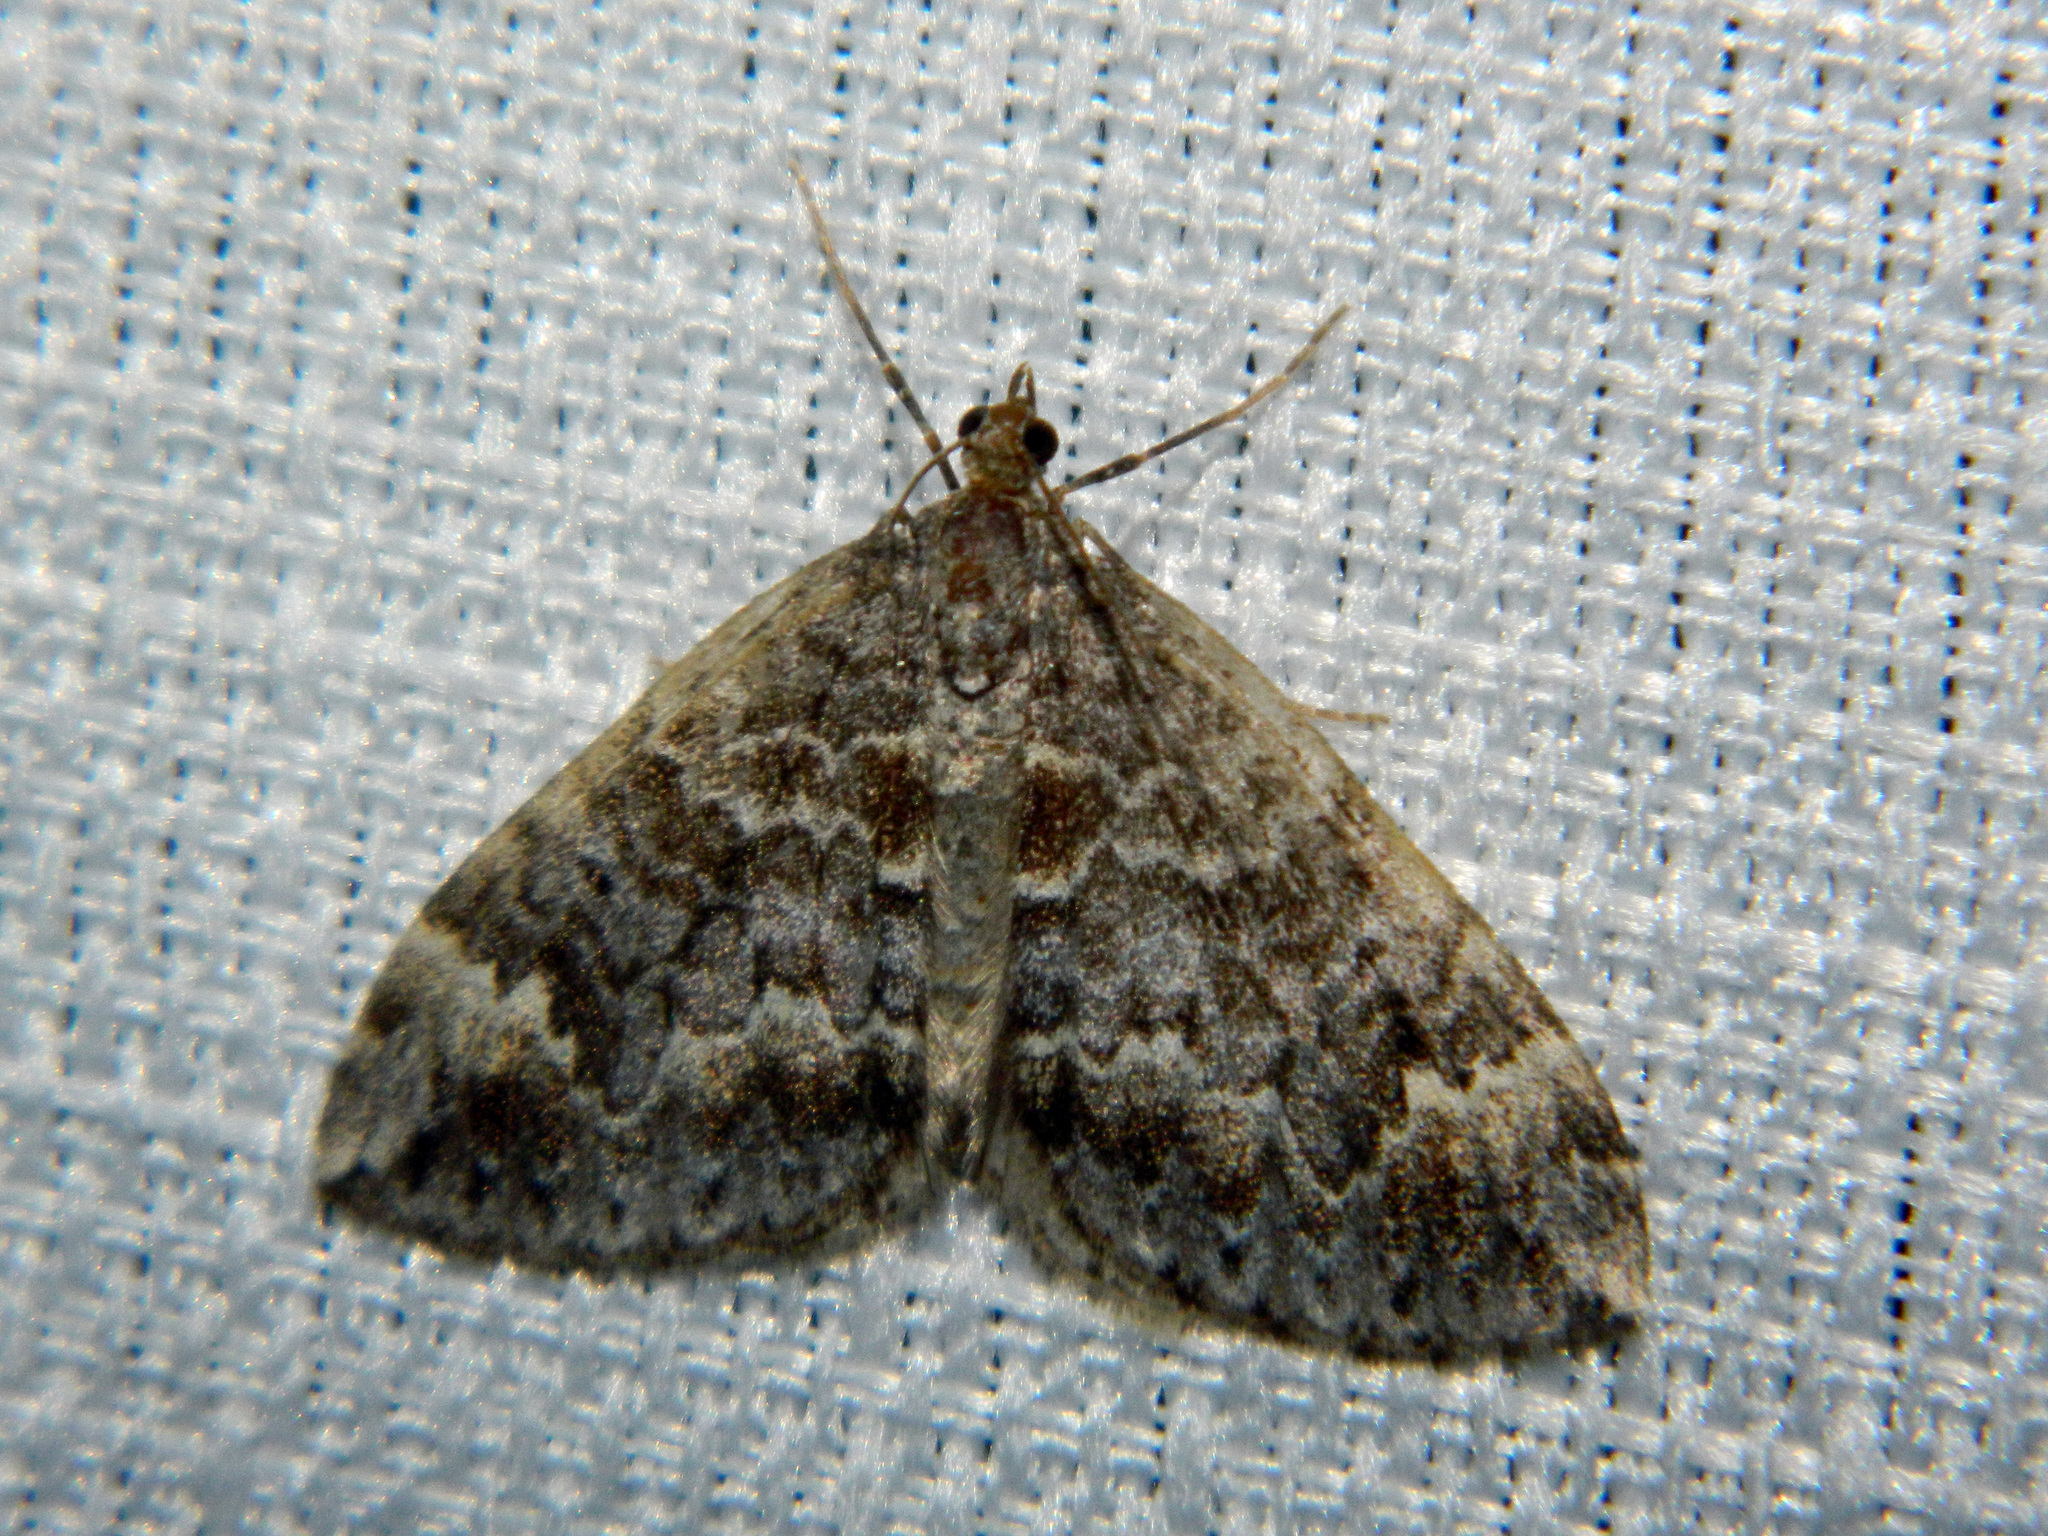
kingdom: Animalia
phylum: Arthropoda
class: Insecta
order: Lepidoptera
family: Geometridae
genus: Dysstroma
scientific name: Dysstroma walkerata
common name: Marbled carpet
